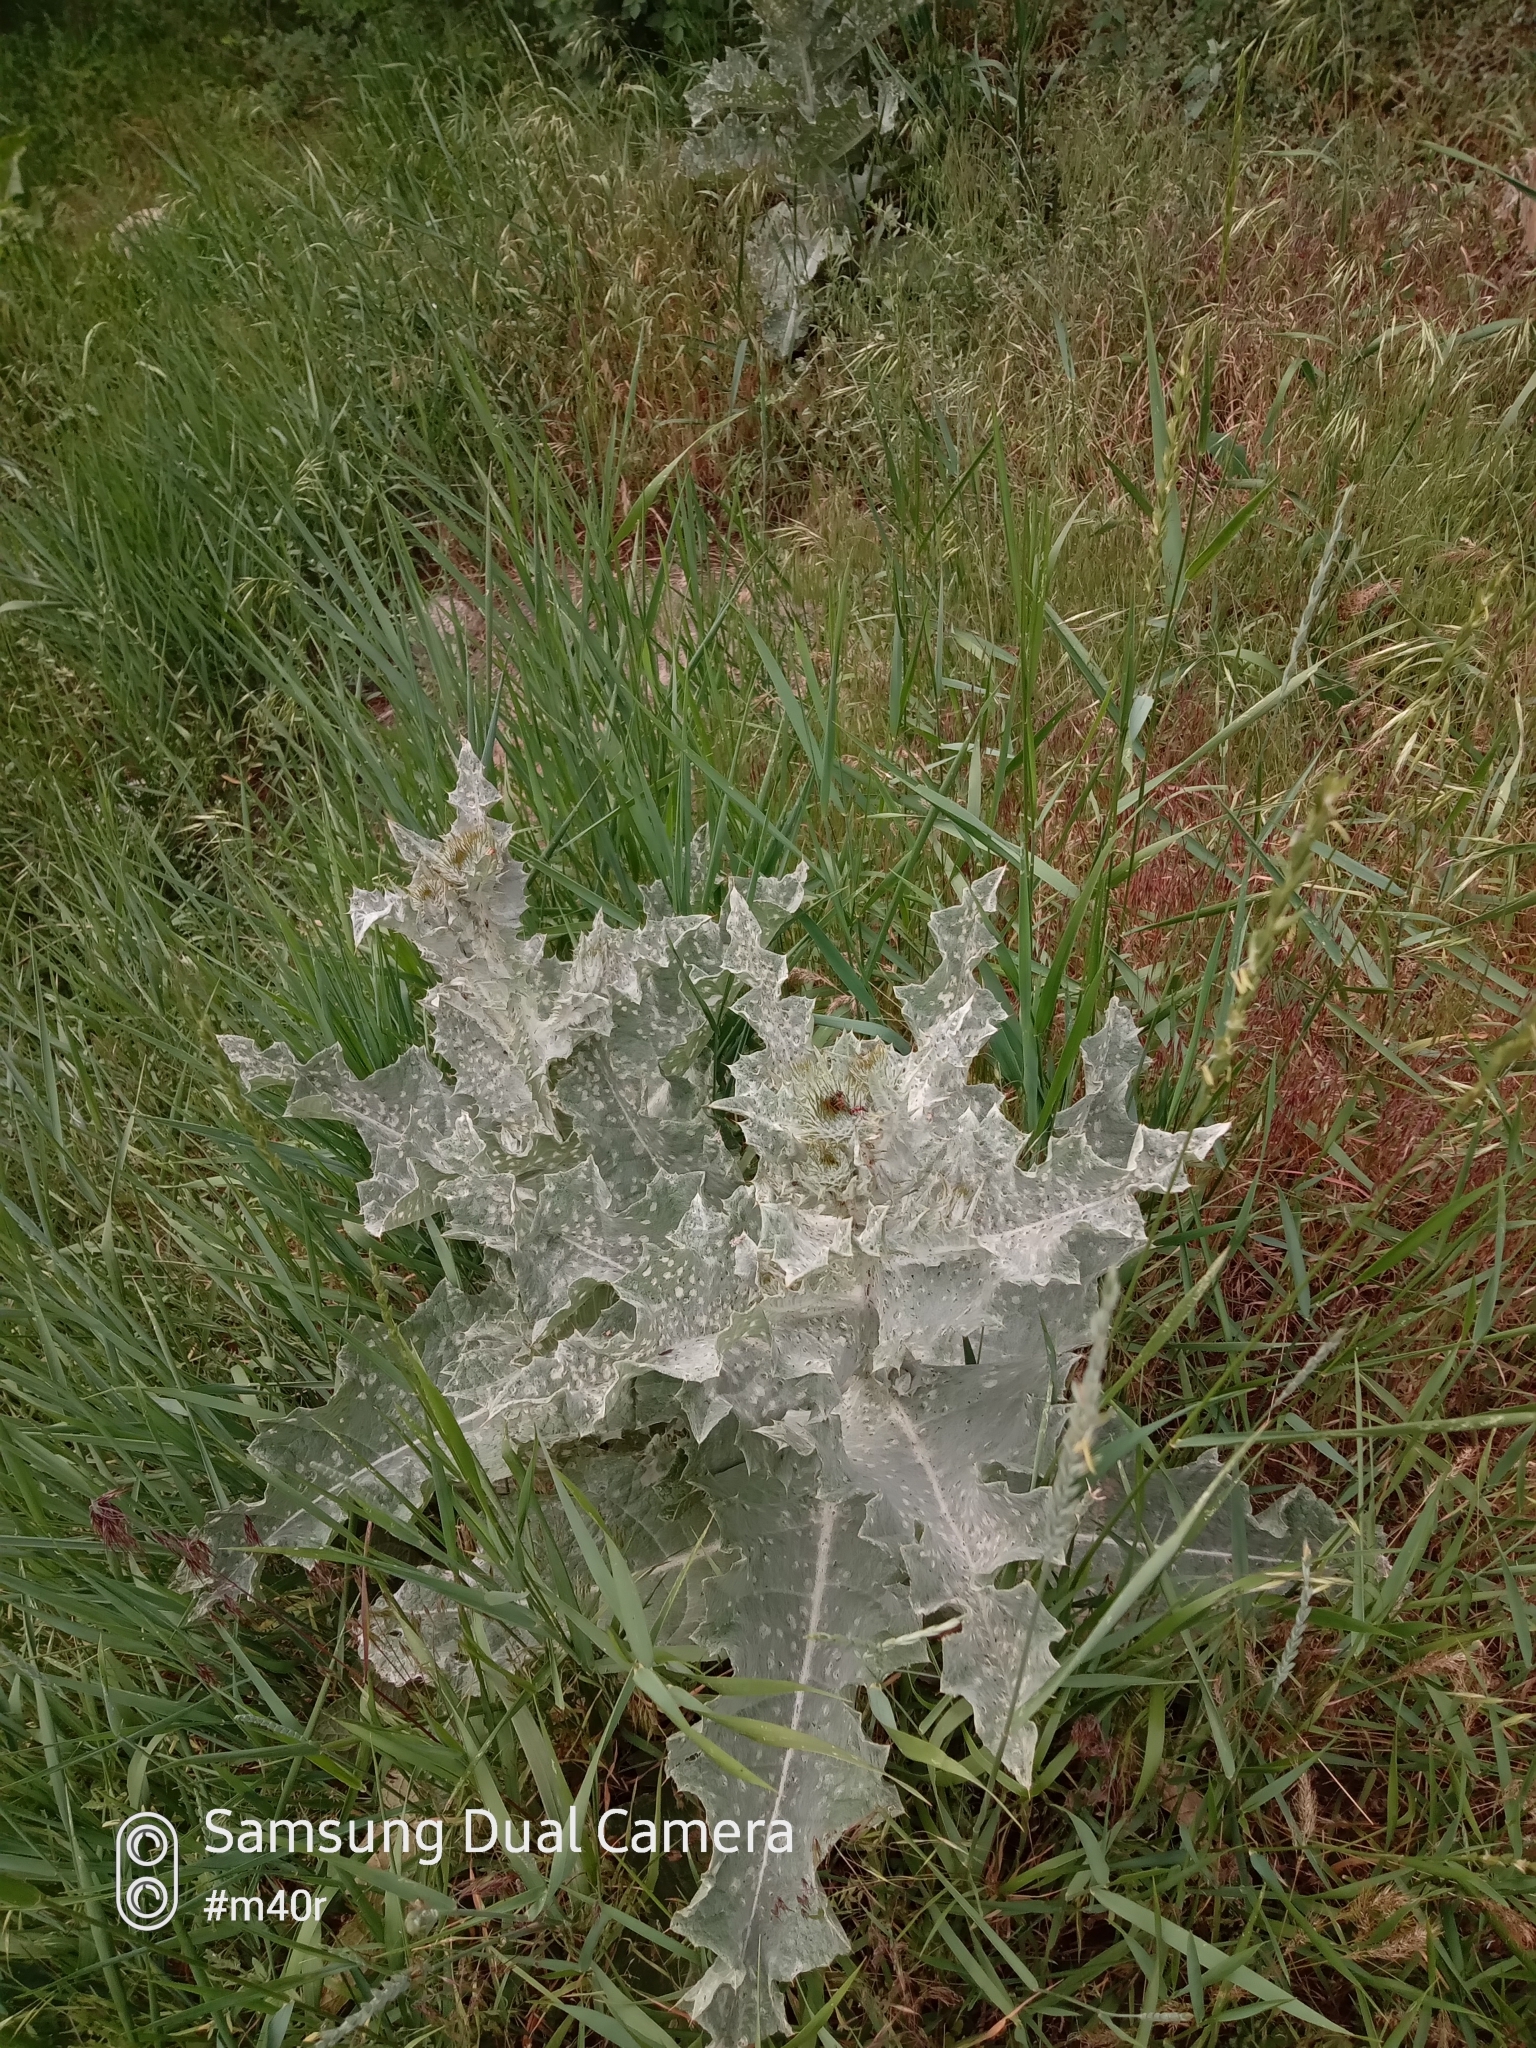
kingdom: Plantae
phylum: Tracheophyta
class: Magnoliopsida
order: Asterales
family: Asteraceae
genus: Onopordum
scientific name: Onopordum acanthium
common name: Scotch thistle
